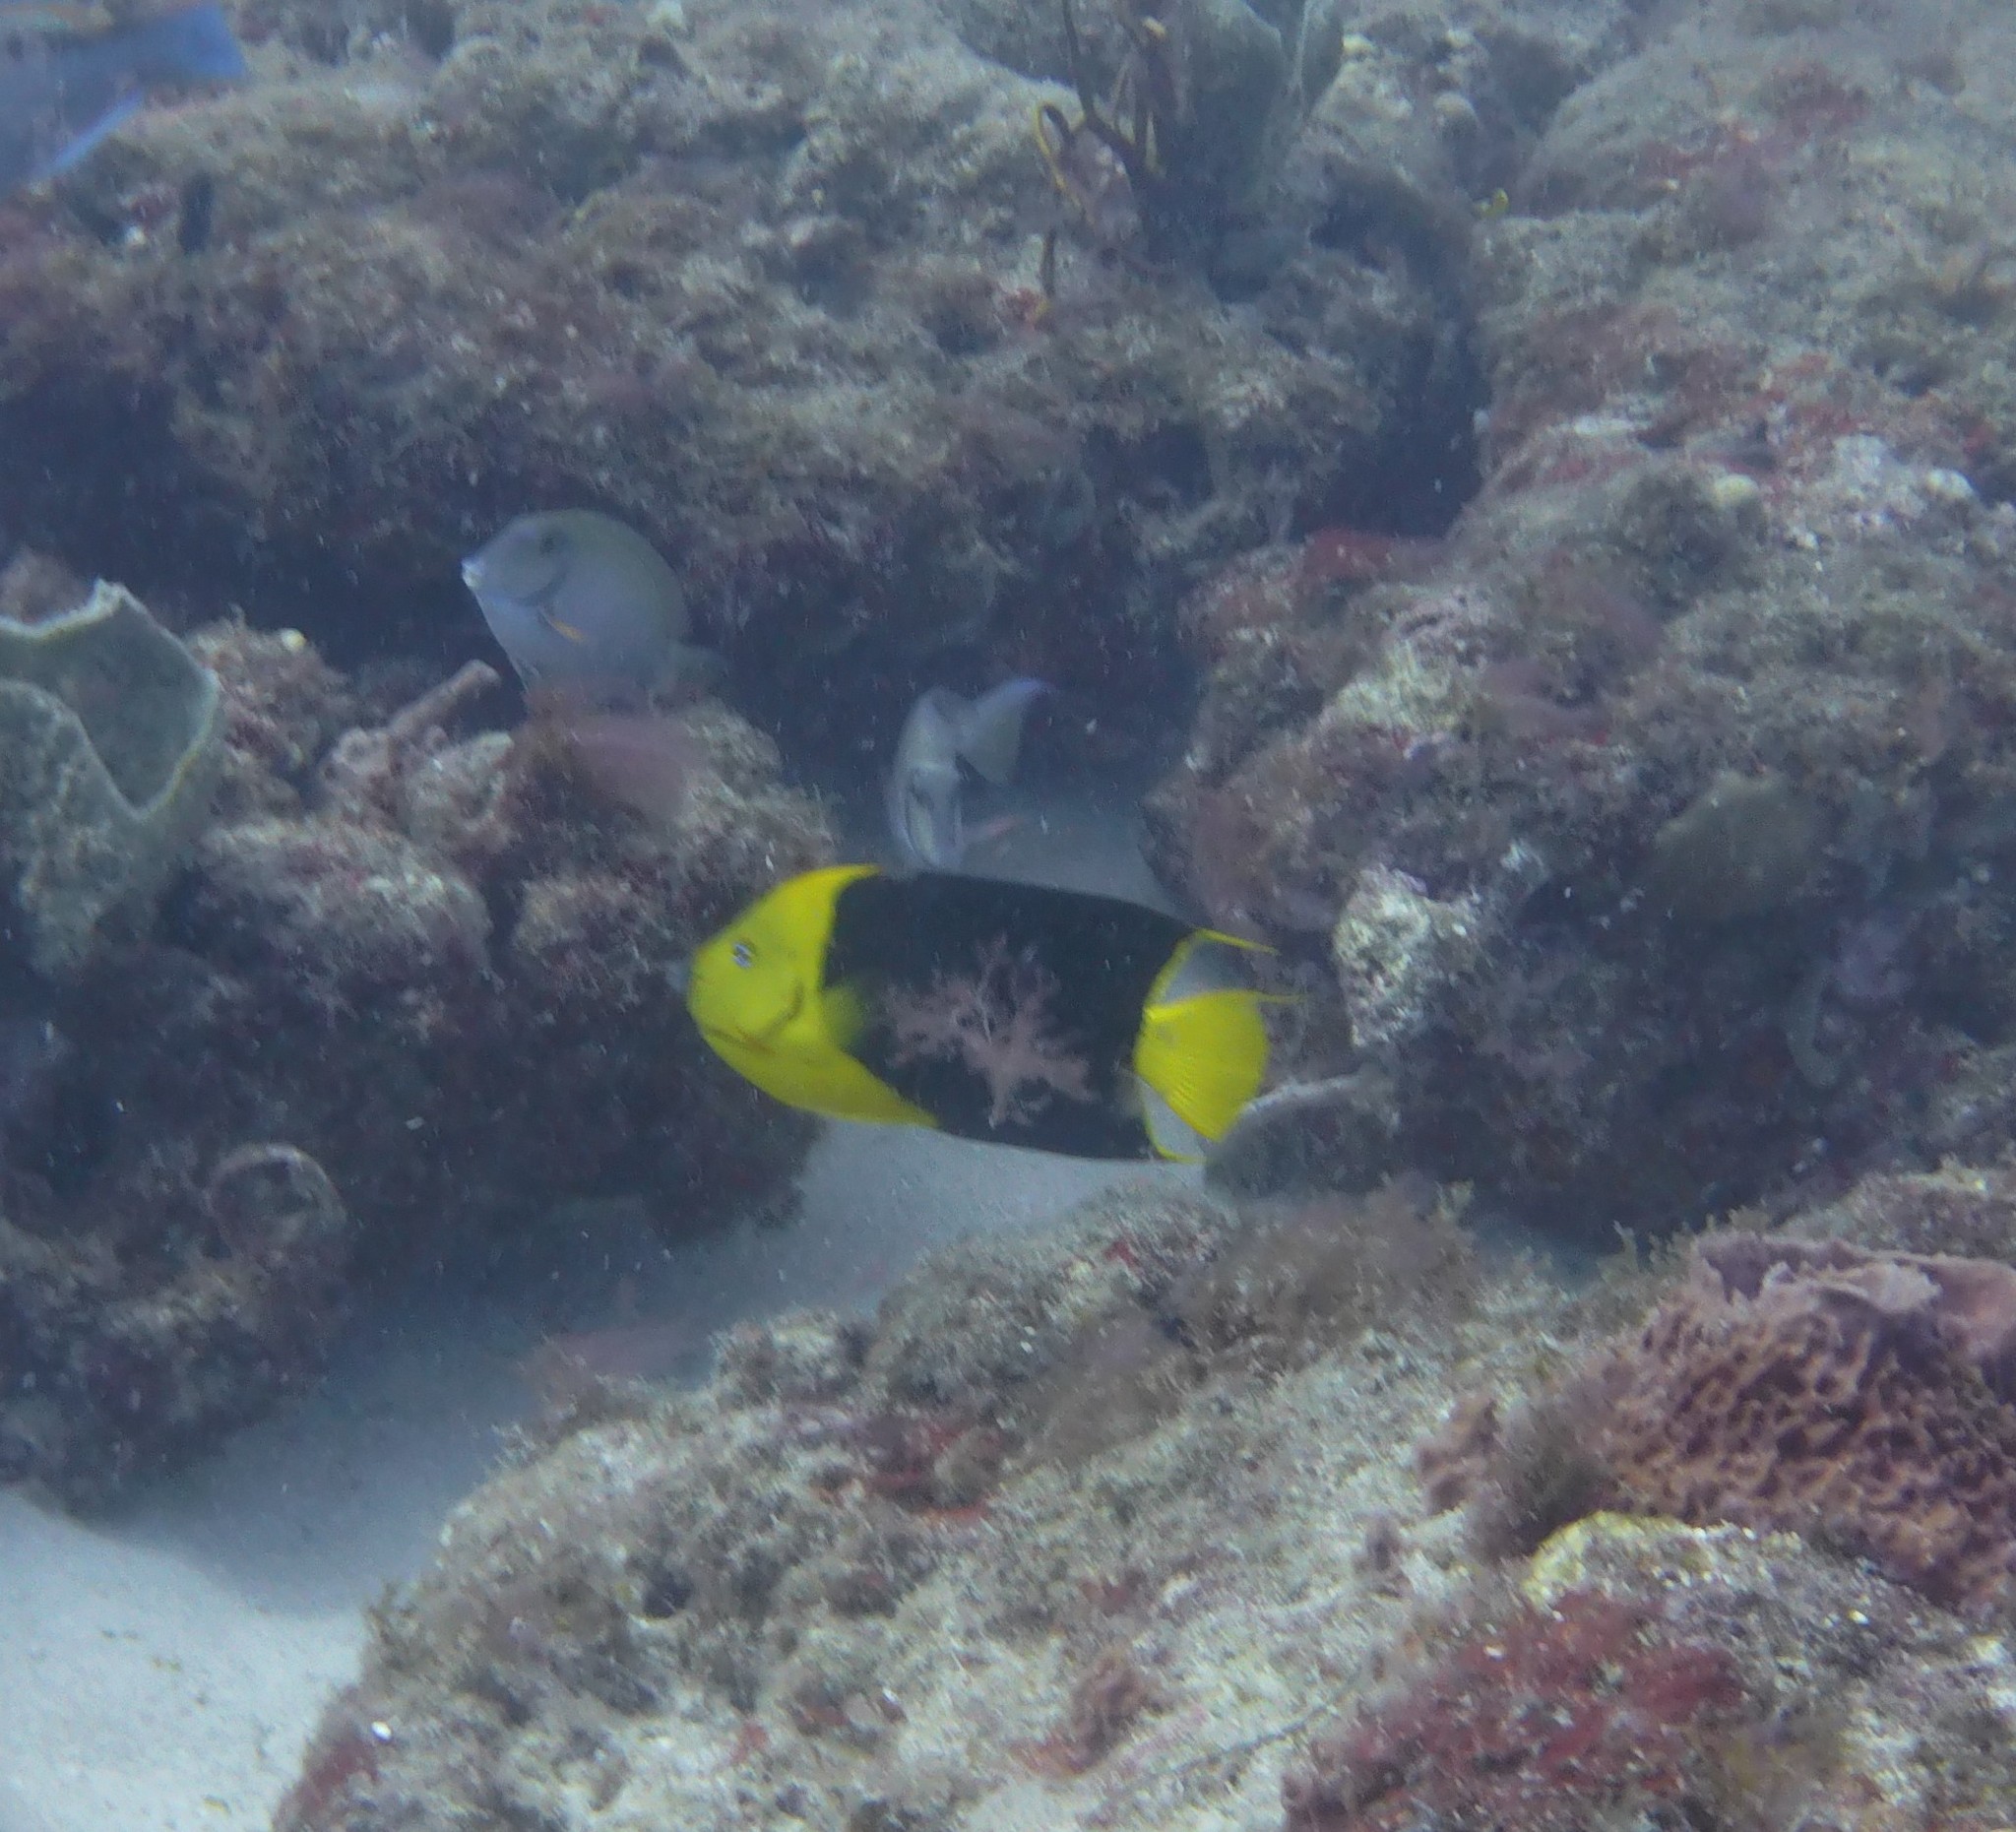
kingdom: Animalia
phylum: Chordata
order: Perciformes
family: Pomacanthidae
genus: Holacanthus
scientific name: Holacanthus tricolor
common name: Rock beauty
